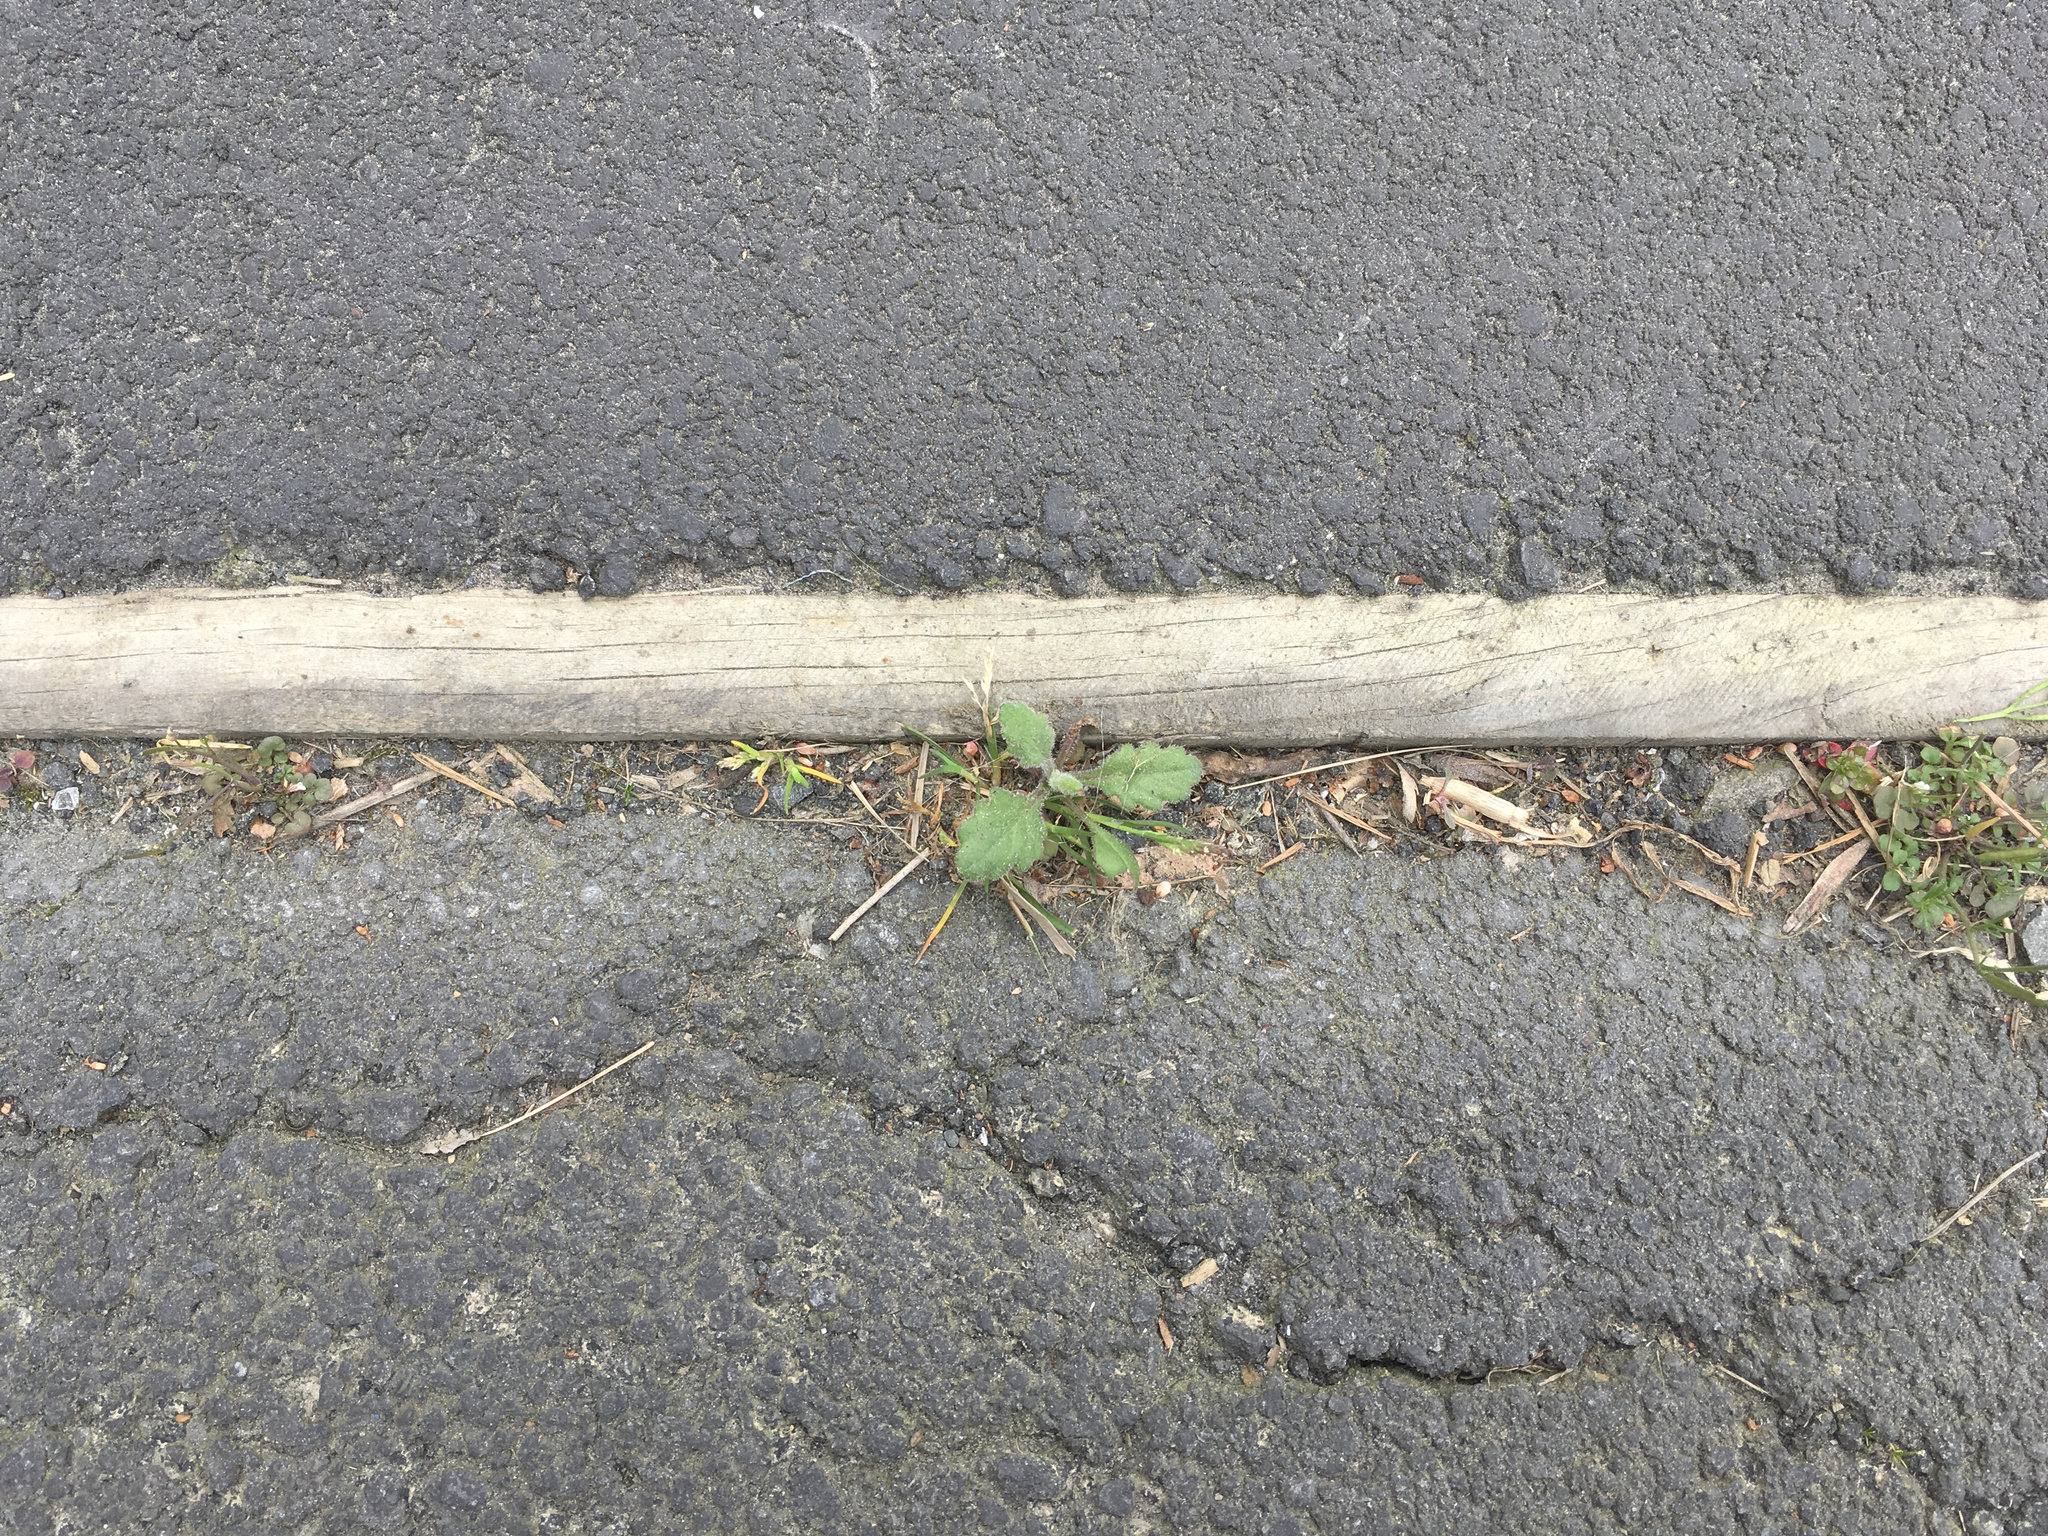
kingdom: Plantae
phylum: Tracheophyta
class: Magnoliopsida
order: Asterales
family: Asteraceae
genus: Senecio
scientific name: Senecio glomeratus
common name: Cutleaf burnweed
